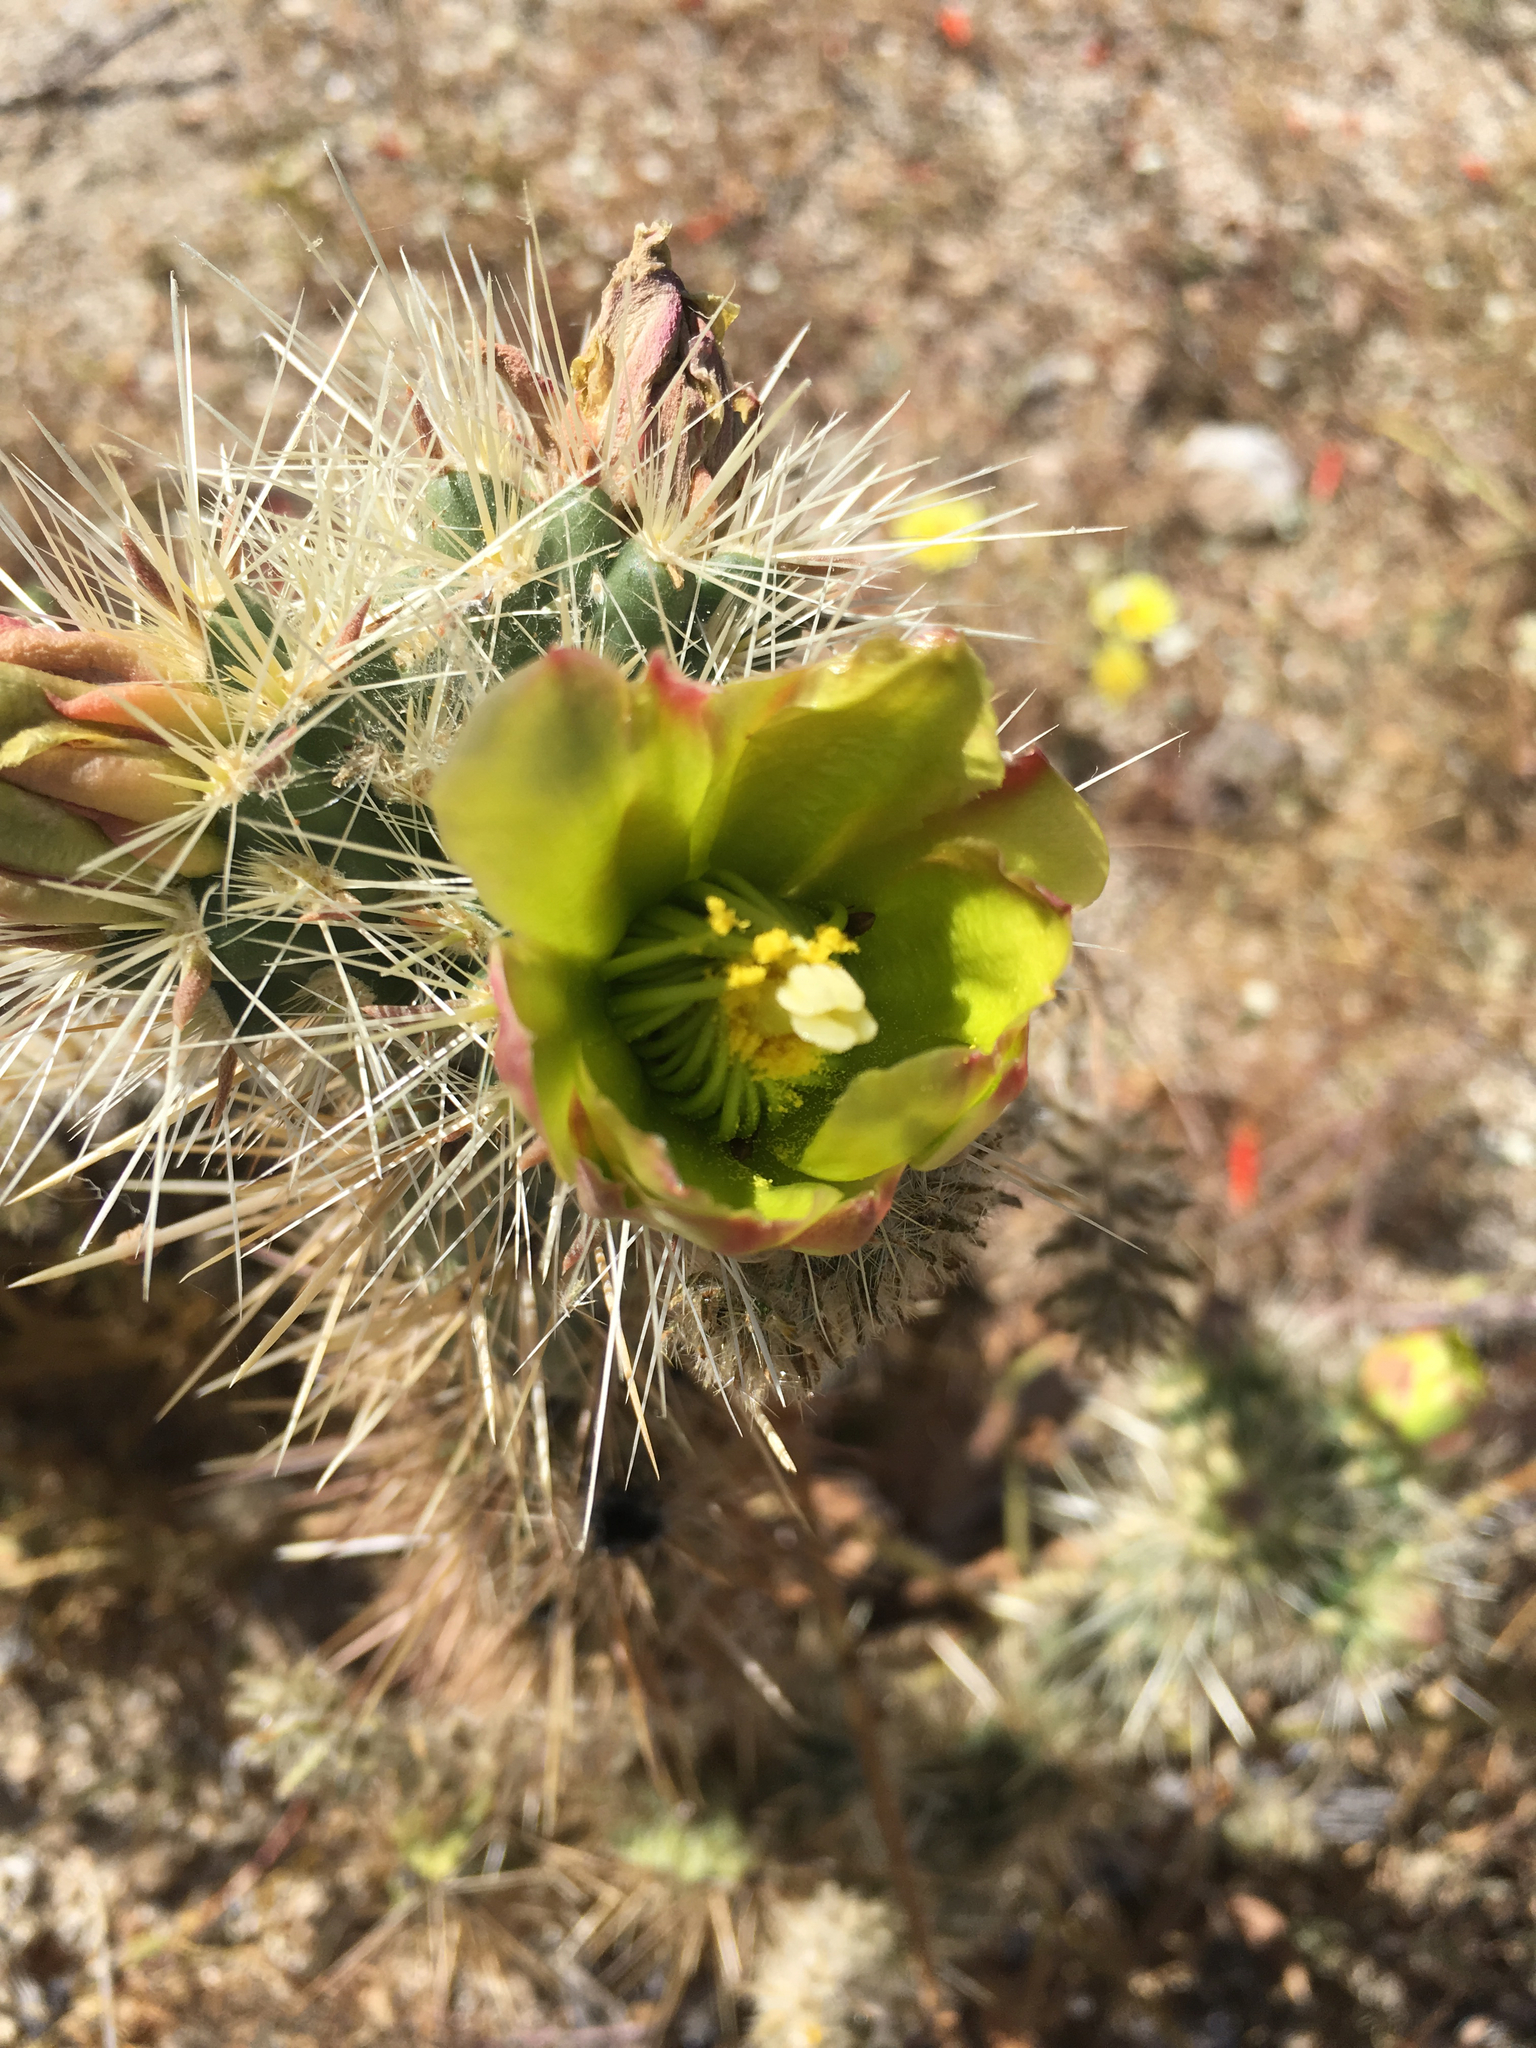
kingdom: Plantae
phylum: Tracheophyta
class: Magnoliopsida
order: Caryophyllales
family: Cactaceae
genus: Cylindropuntia
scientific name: Cylindropuntia ganderi
